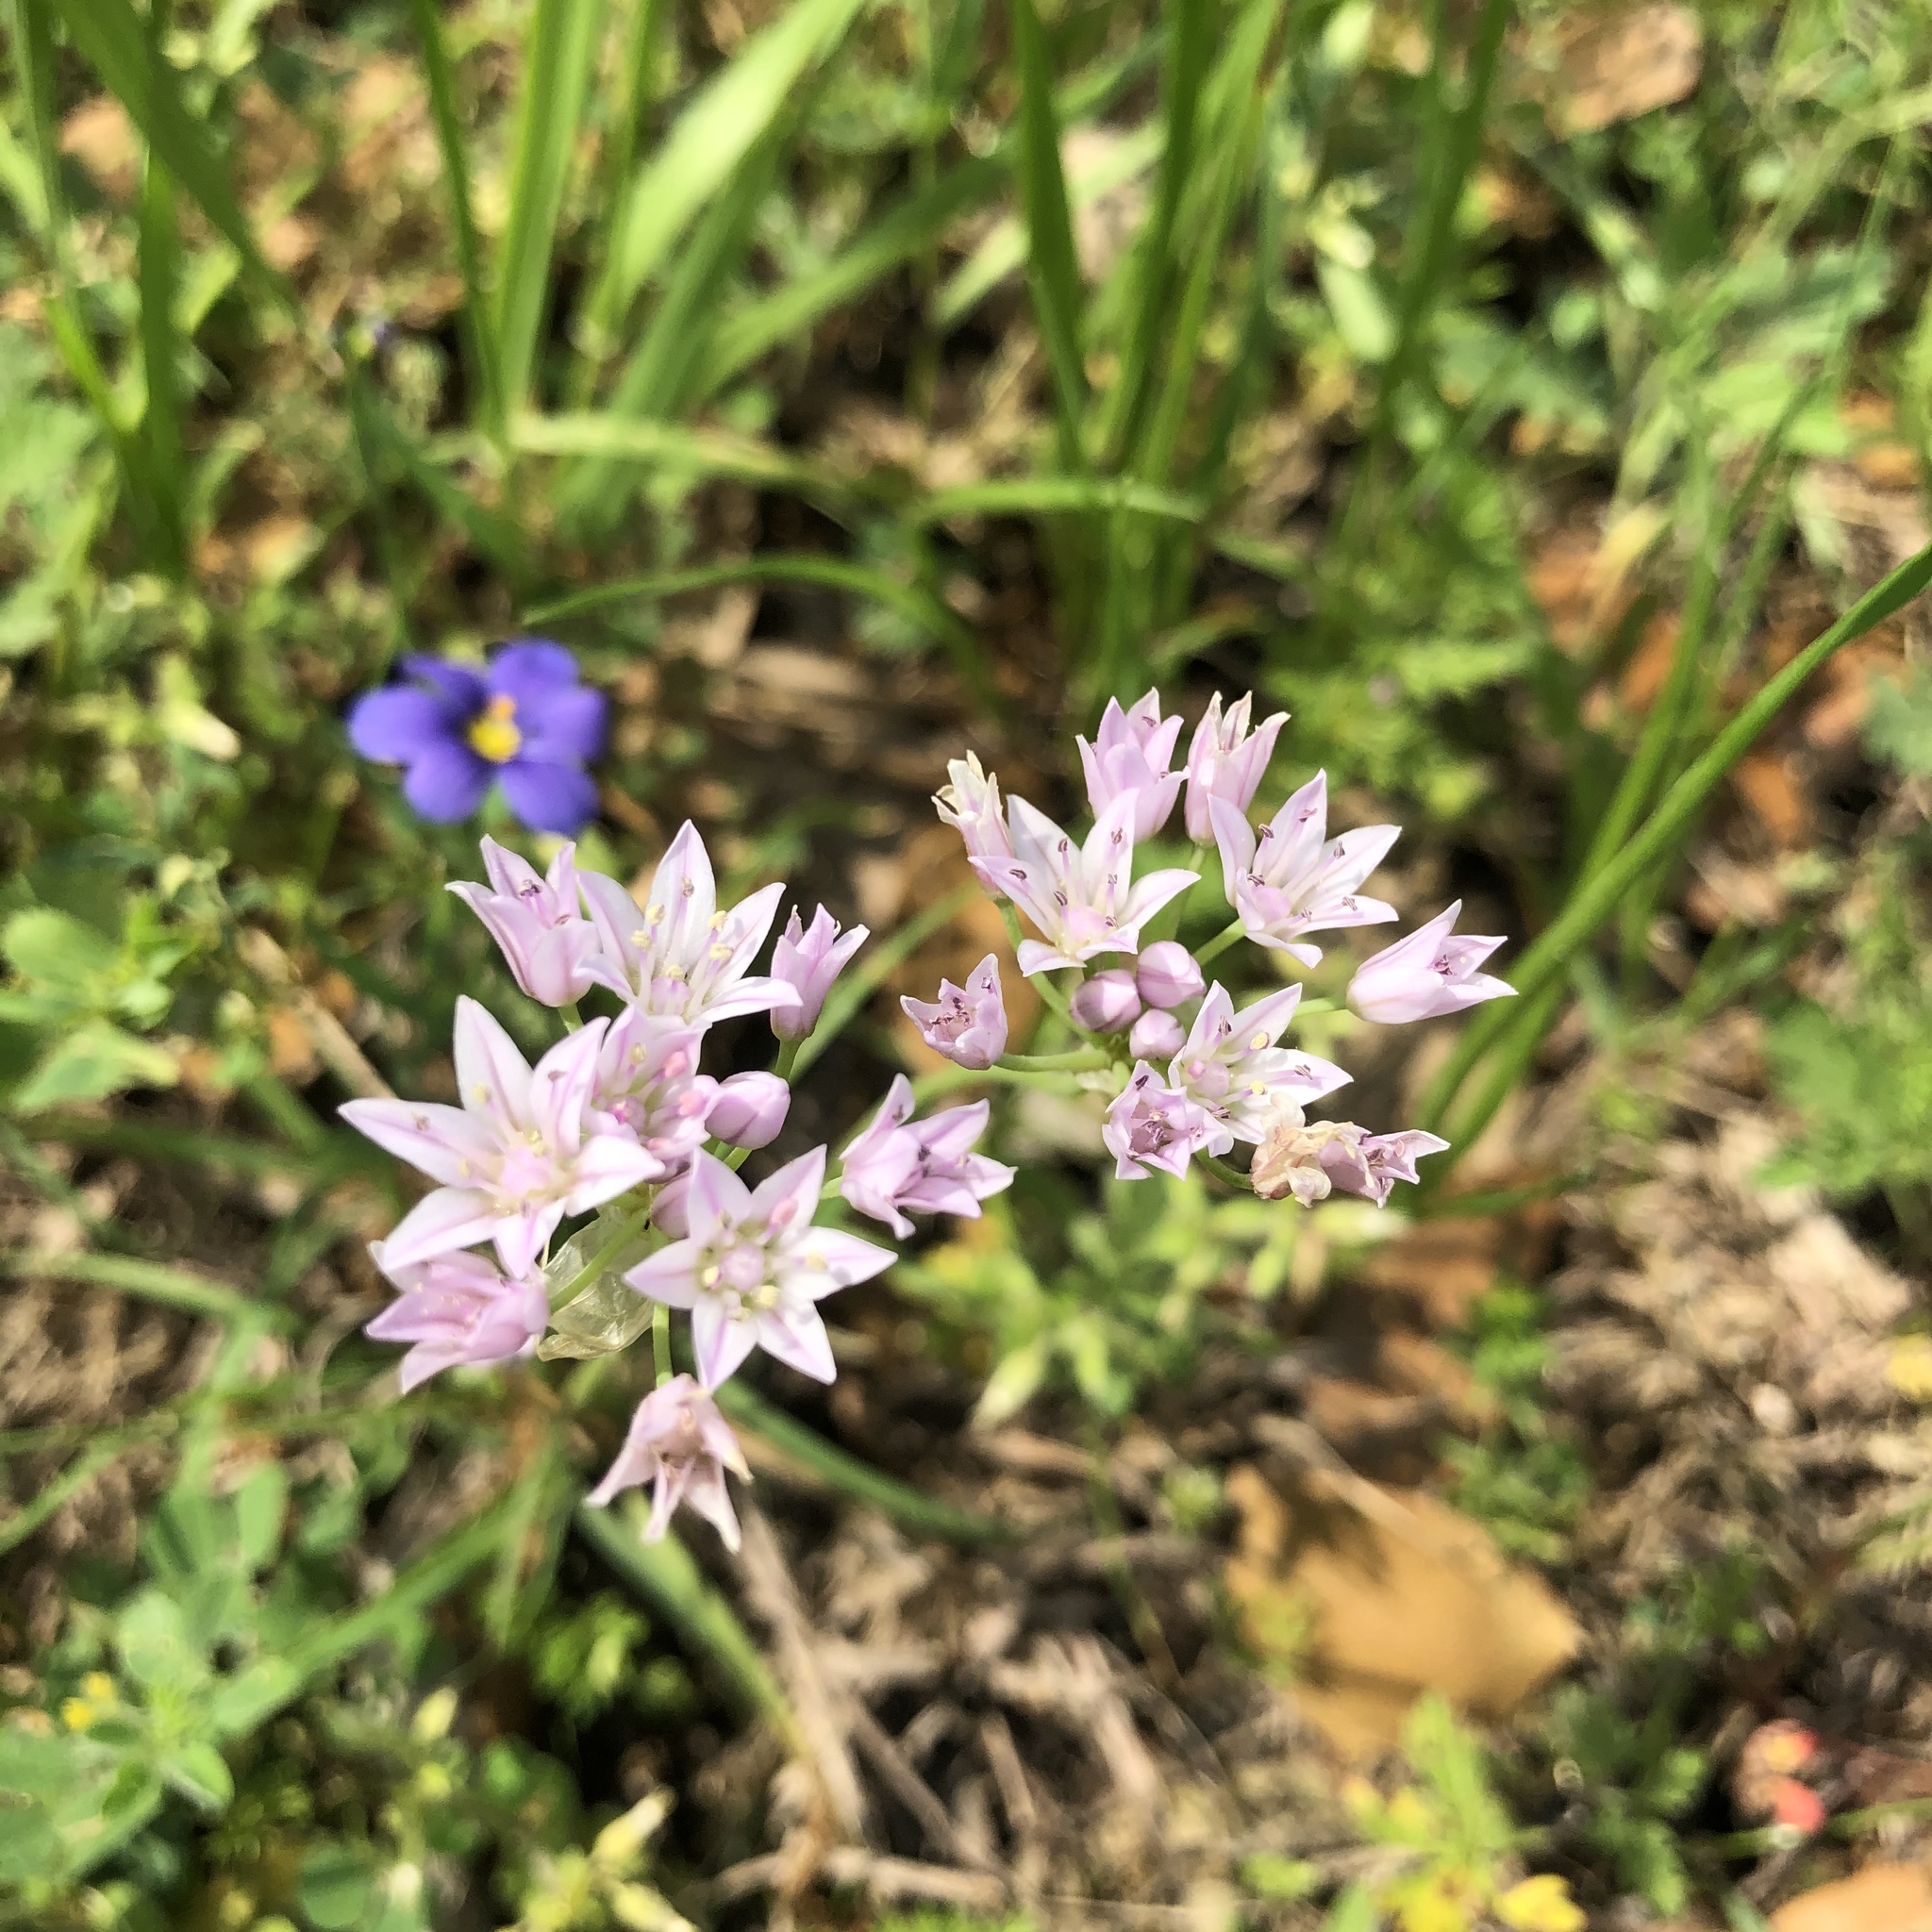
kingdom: Plantae
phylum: Tracheophyta
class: Liliopsida
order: Asparagales
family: Amaryllidaceae
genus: Allium
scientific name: Allium drummondii
